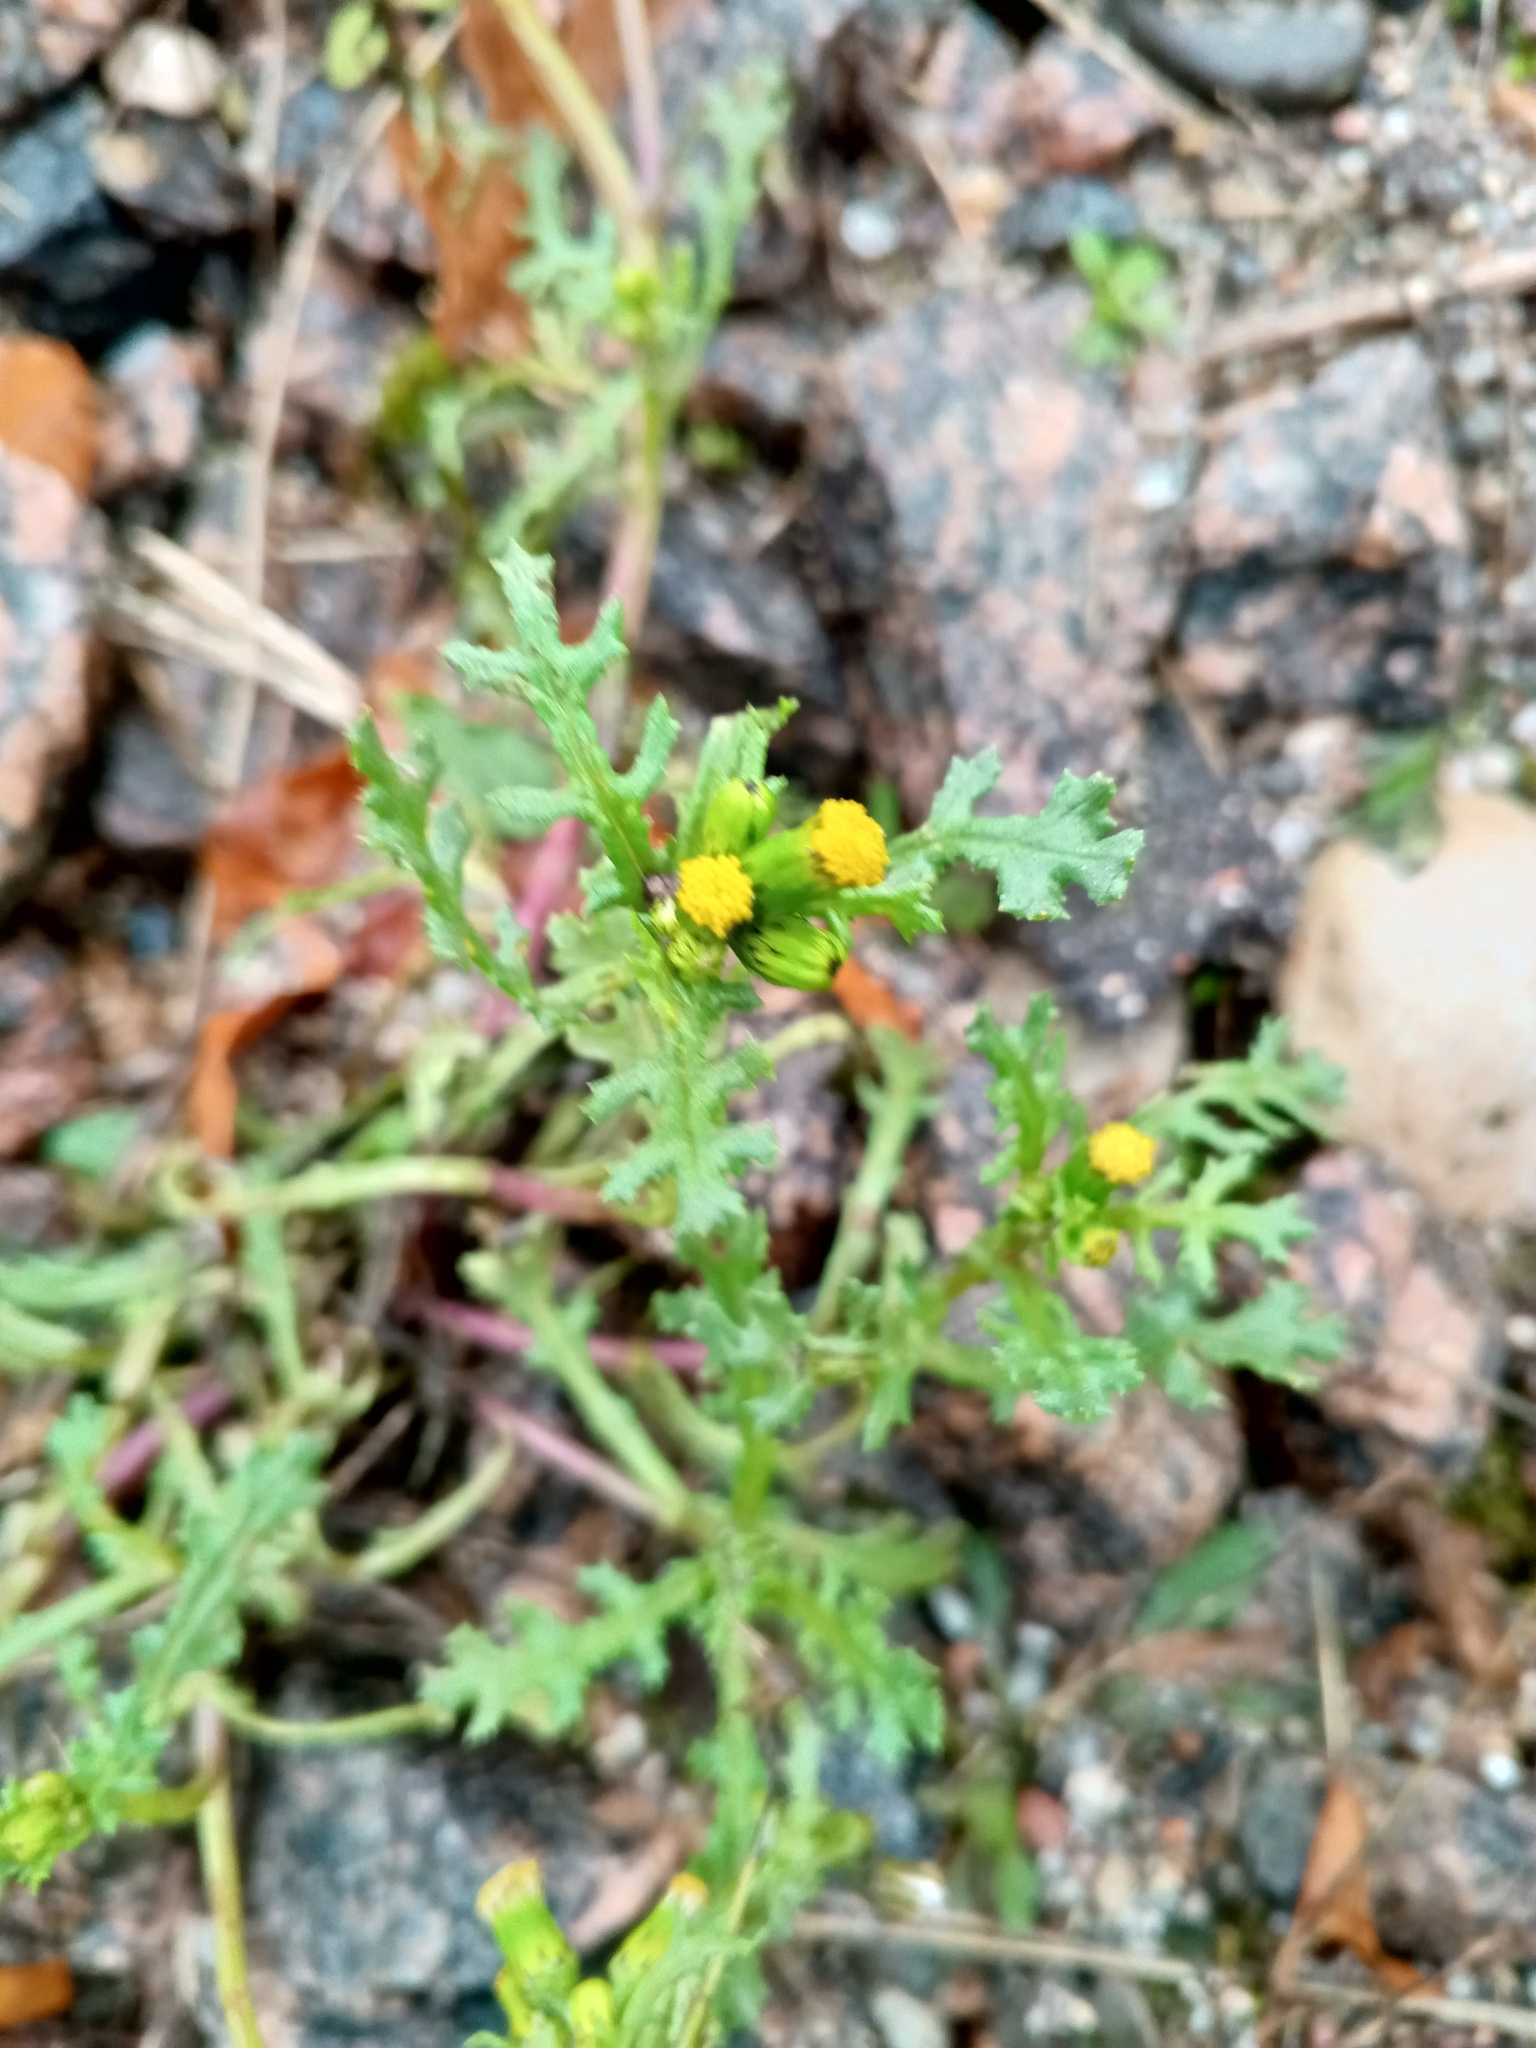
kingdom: Plantae
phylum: Tracheophyta
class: Magnoliopsida
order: Asterales
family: Asteraceae
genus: Senecio
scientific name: Senecio vulgaris
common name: Old-man-in-the-spring
